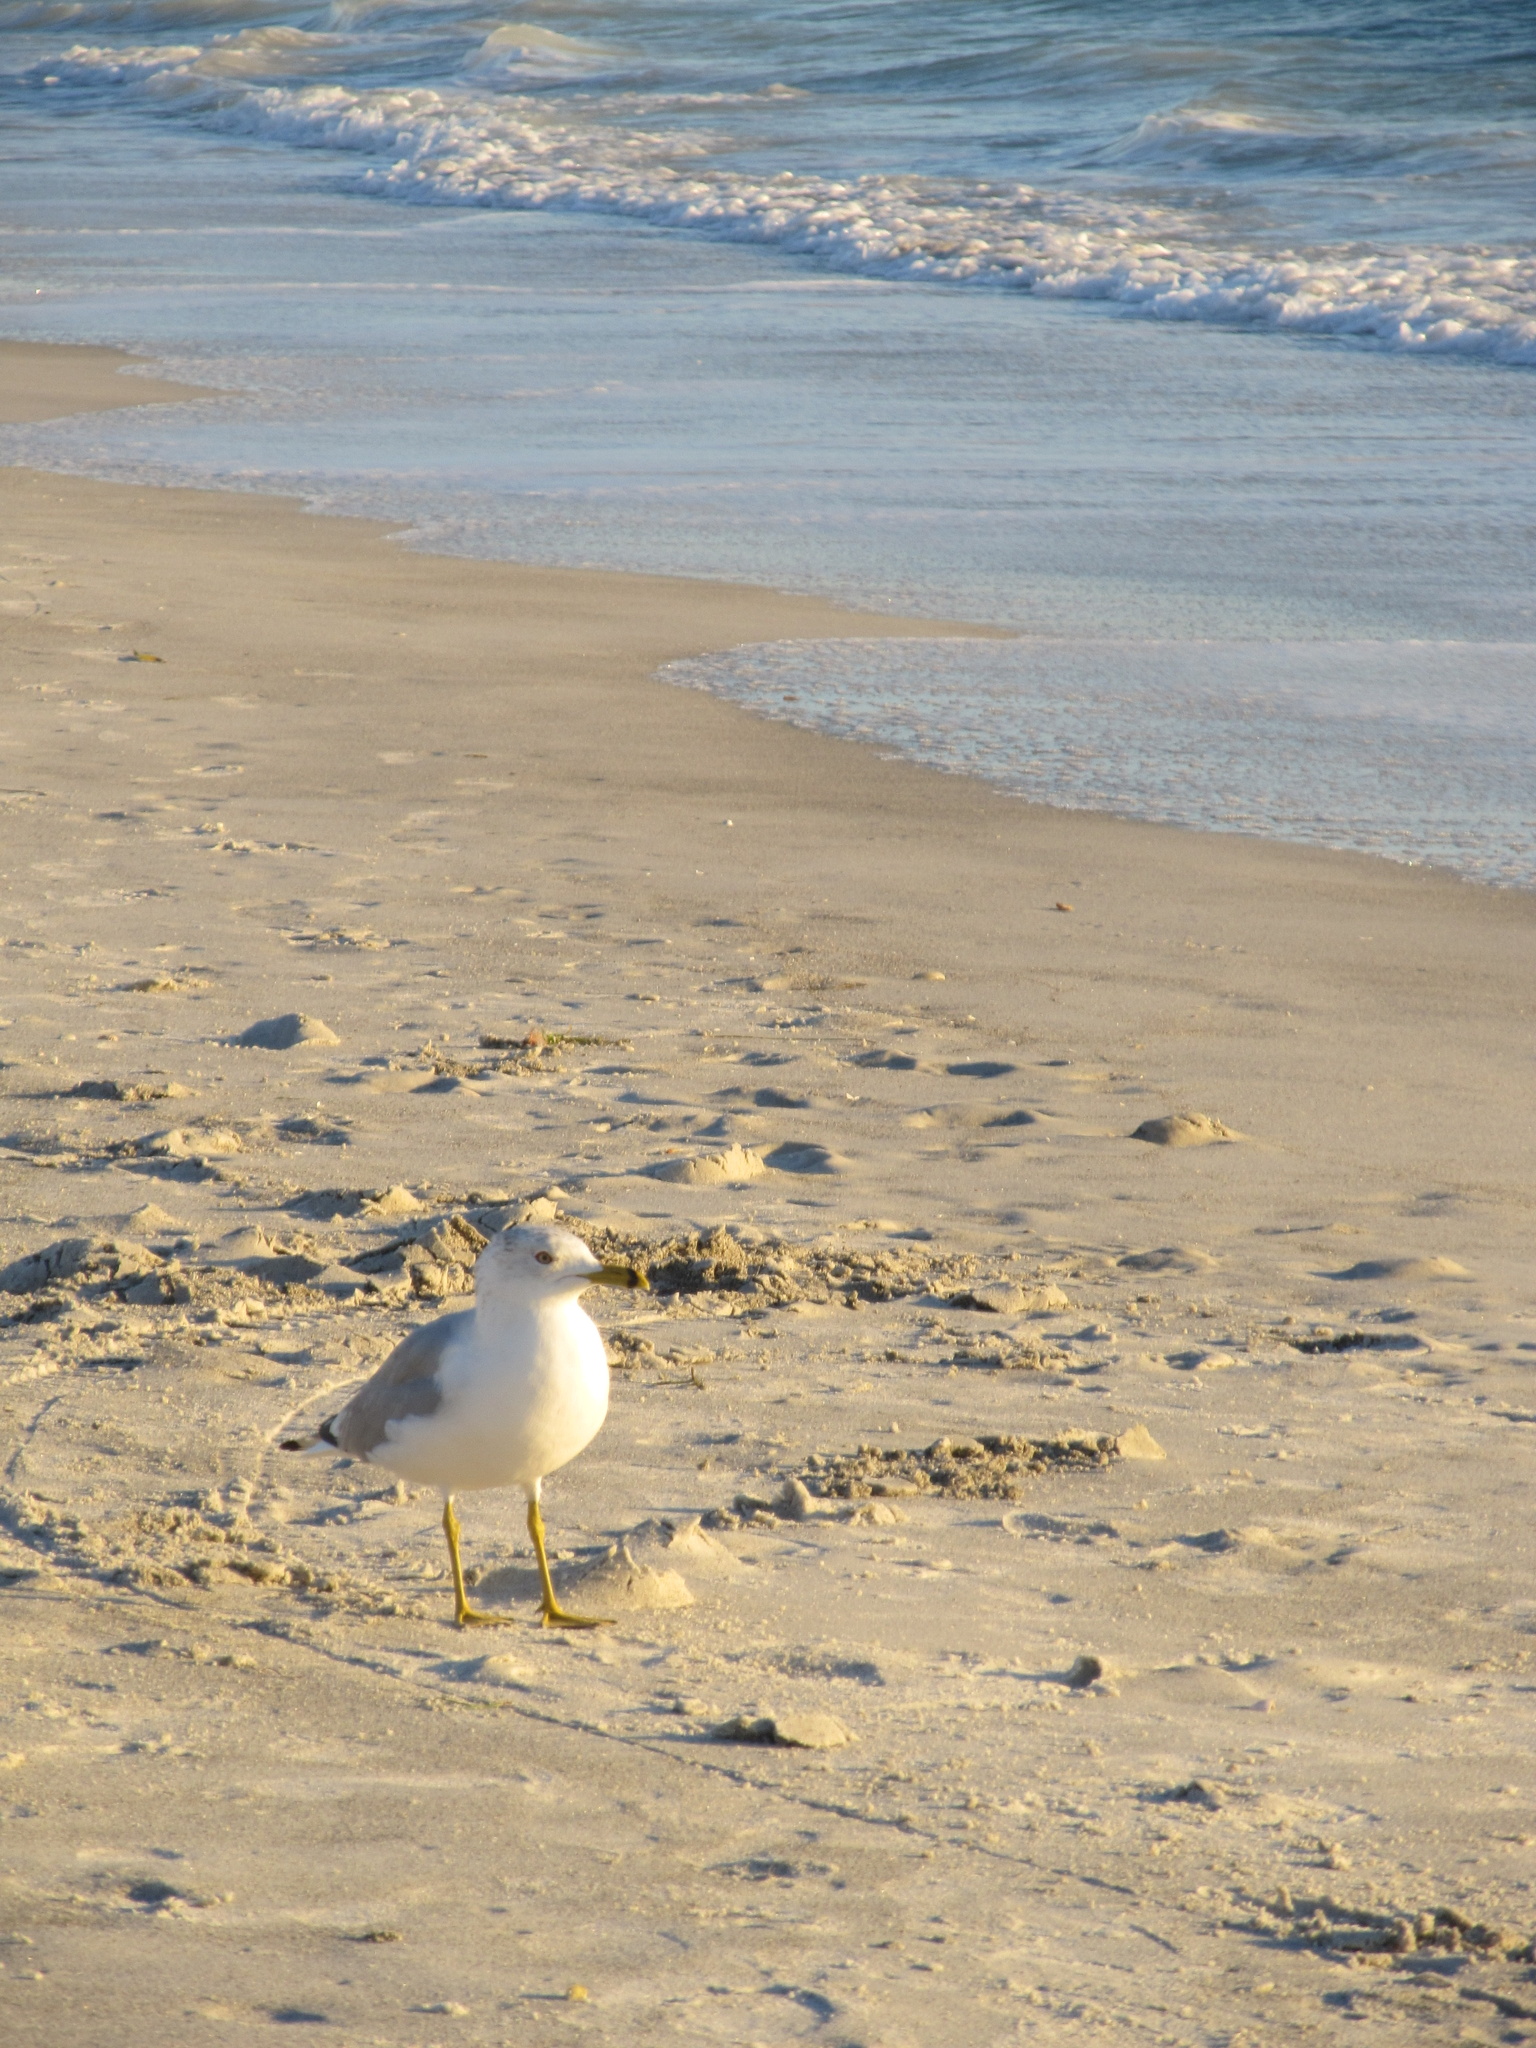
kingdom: Animalia
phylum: Chordata
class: Aves
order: Charadriiformes
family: Laridae
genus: Larus
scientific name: Larus delawarensis
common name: Ring-billed gull
